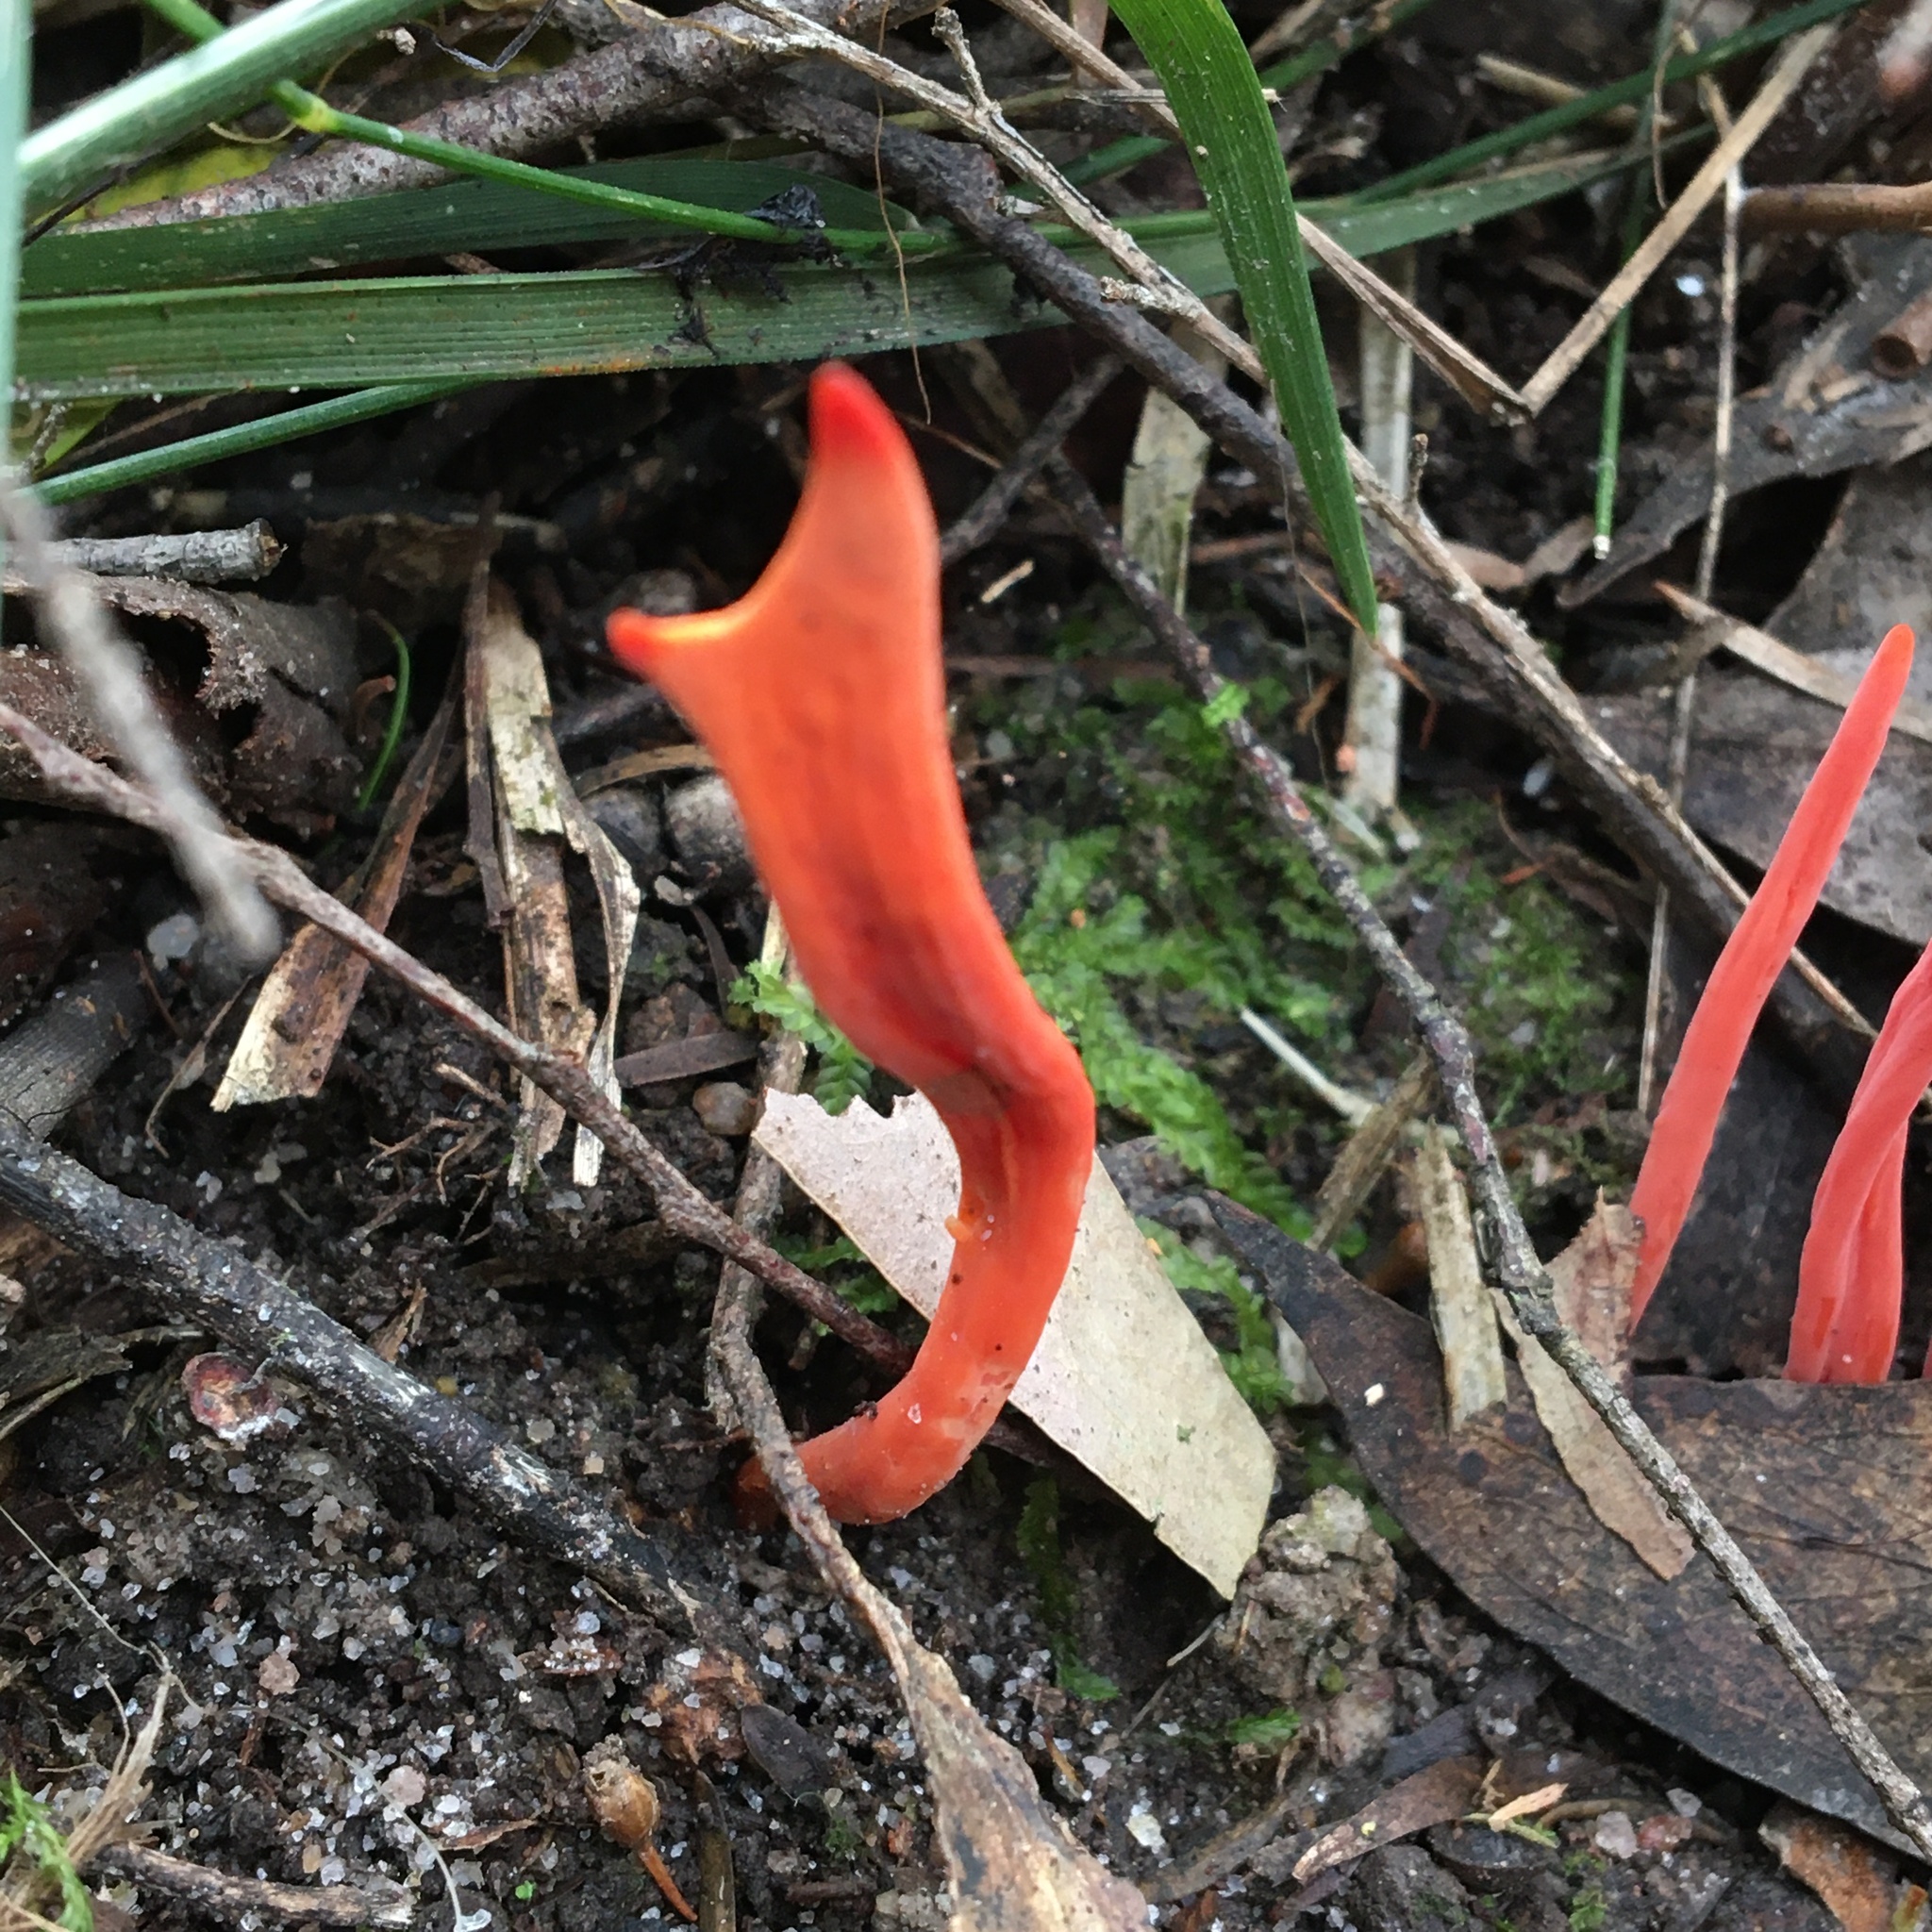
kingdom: Fungi
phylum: Basidiomycota
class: Agaricomycetes
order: Agaricales
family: Clavariaceae
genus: Clavulinopsis
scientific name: Clavulinopsis sulcata
